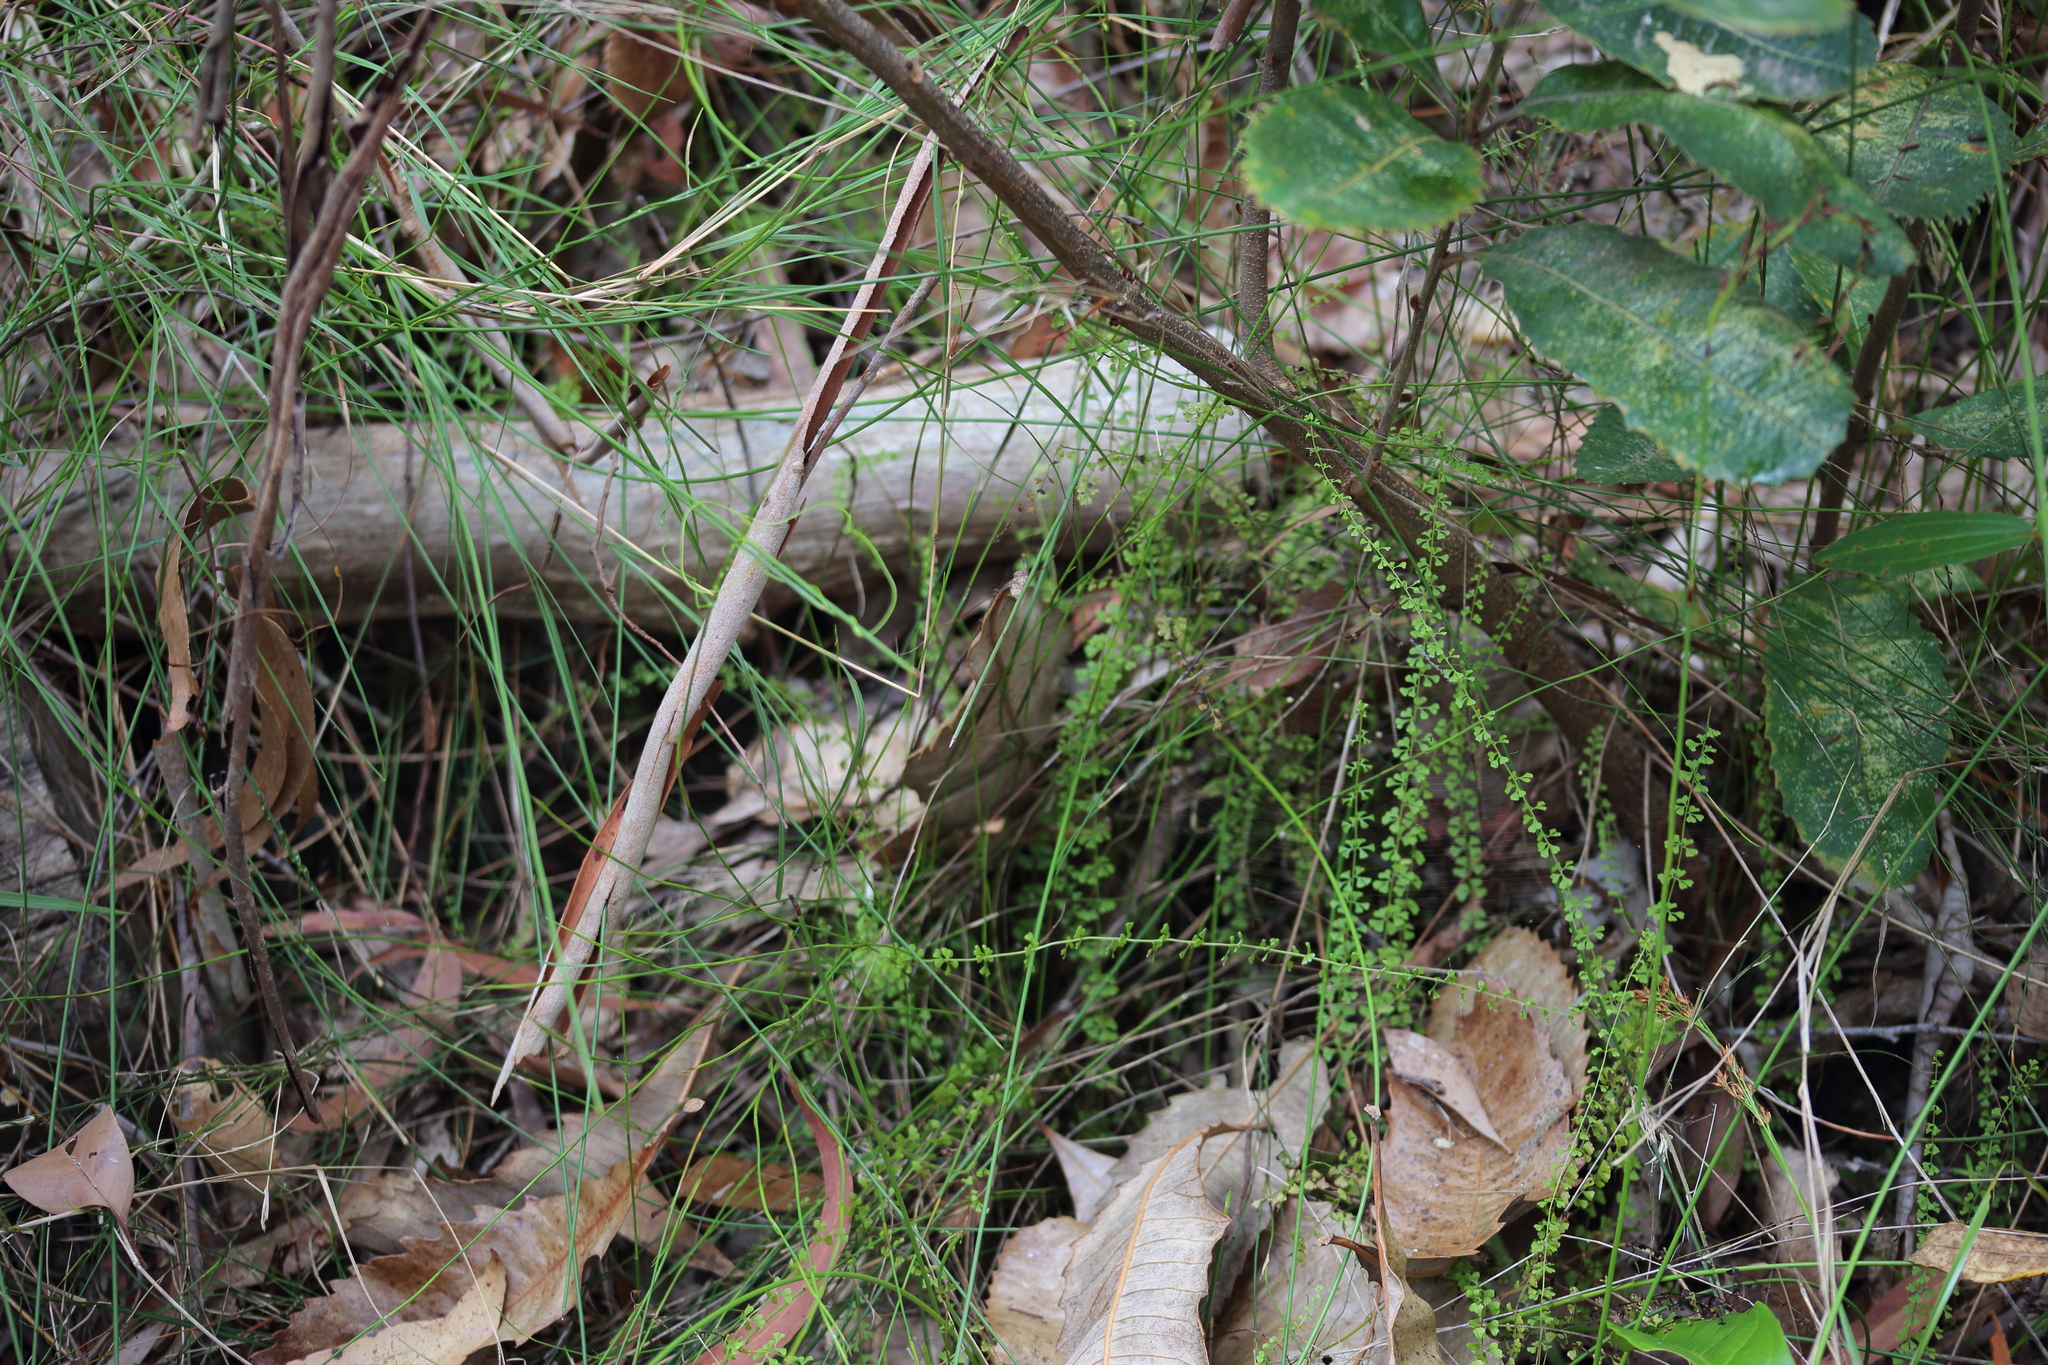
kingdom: Plantae
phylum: Tracheophyta
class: Polypodiopsida
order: Polypodiales
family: Lindsaeaceae
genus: Lindsaea
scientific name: Lindsaea incisa
